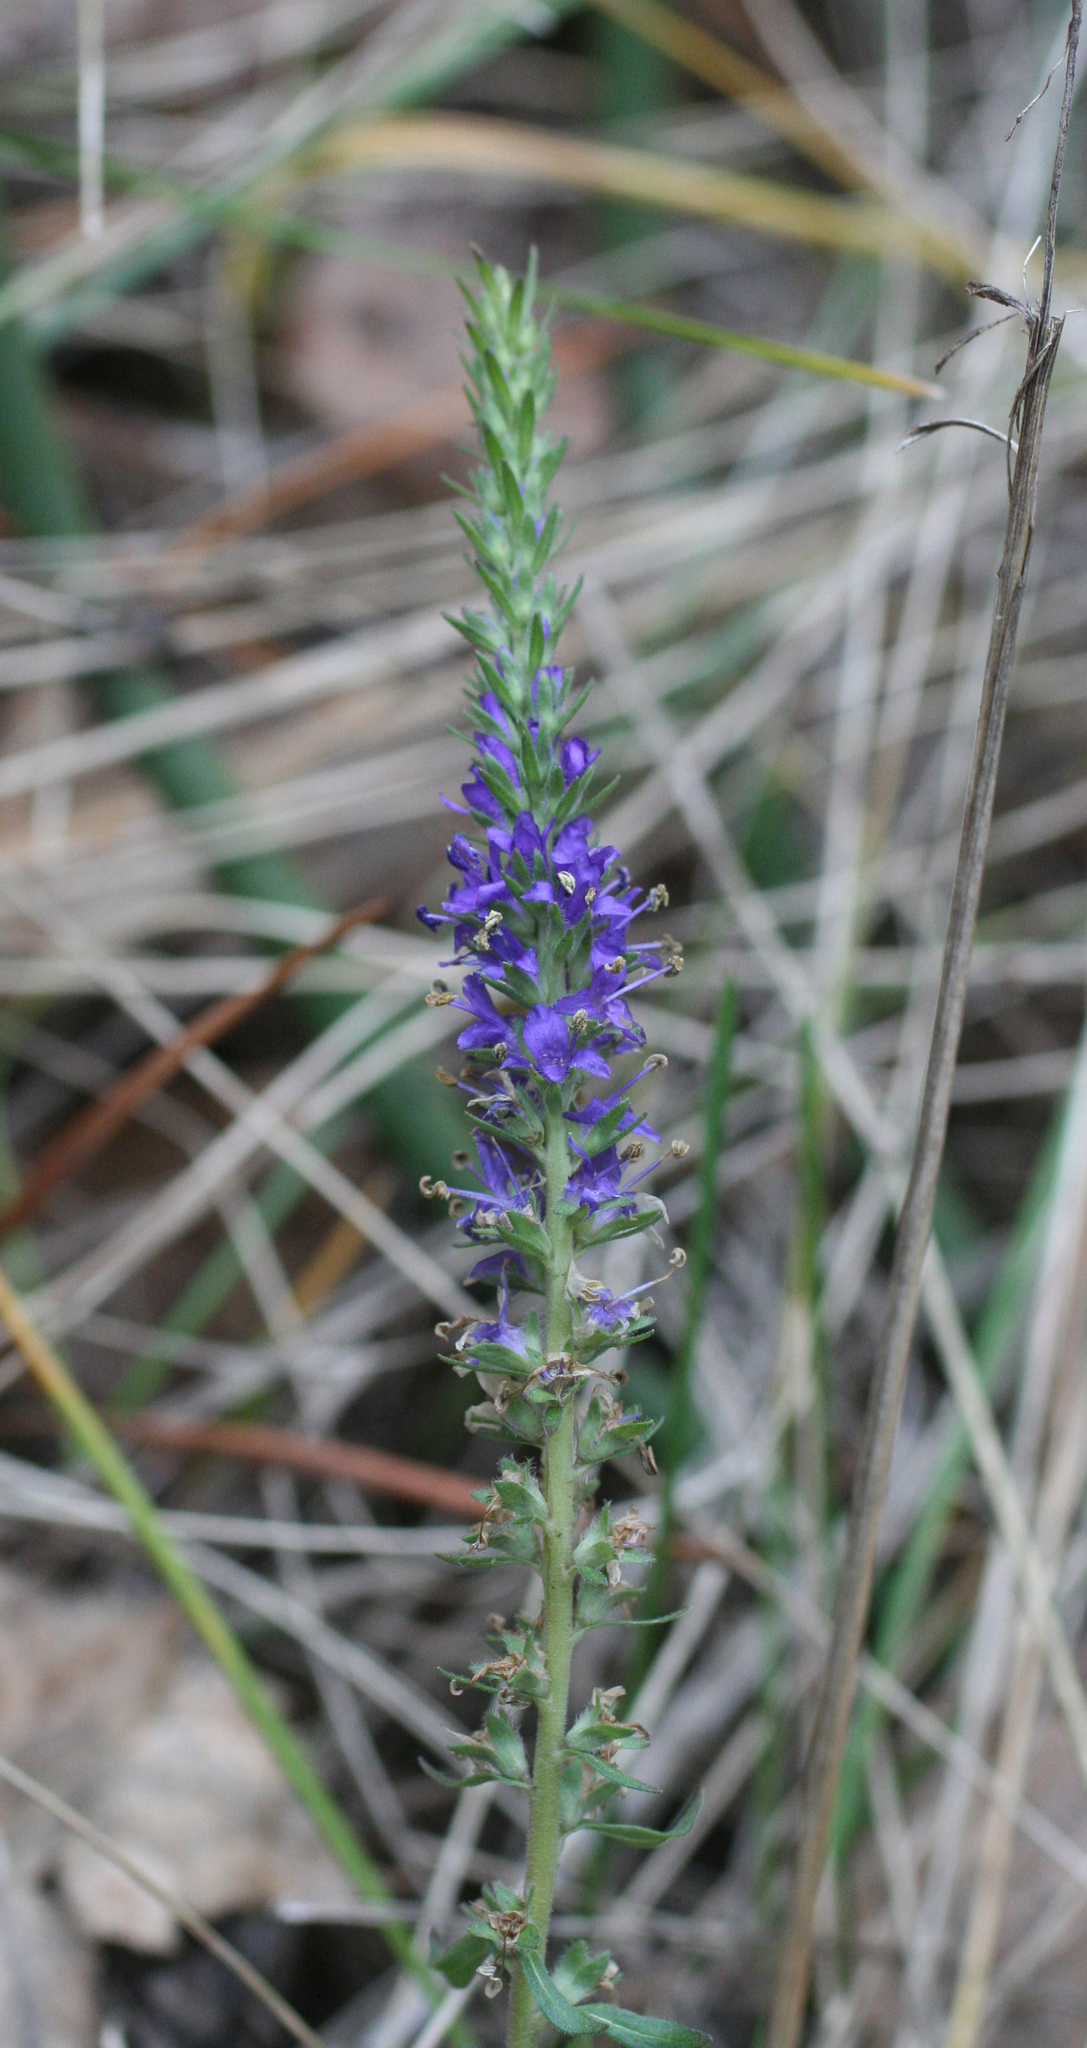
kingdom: Plantae
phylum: Tracheophyta
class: Magnoliopsida
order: Lamiales
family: Plantaginaceae
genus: Veronica
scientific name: Veronica spicata
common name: Spiked speedwell
